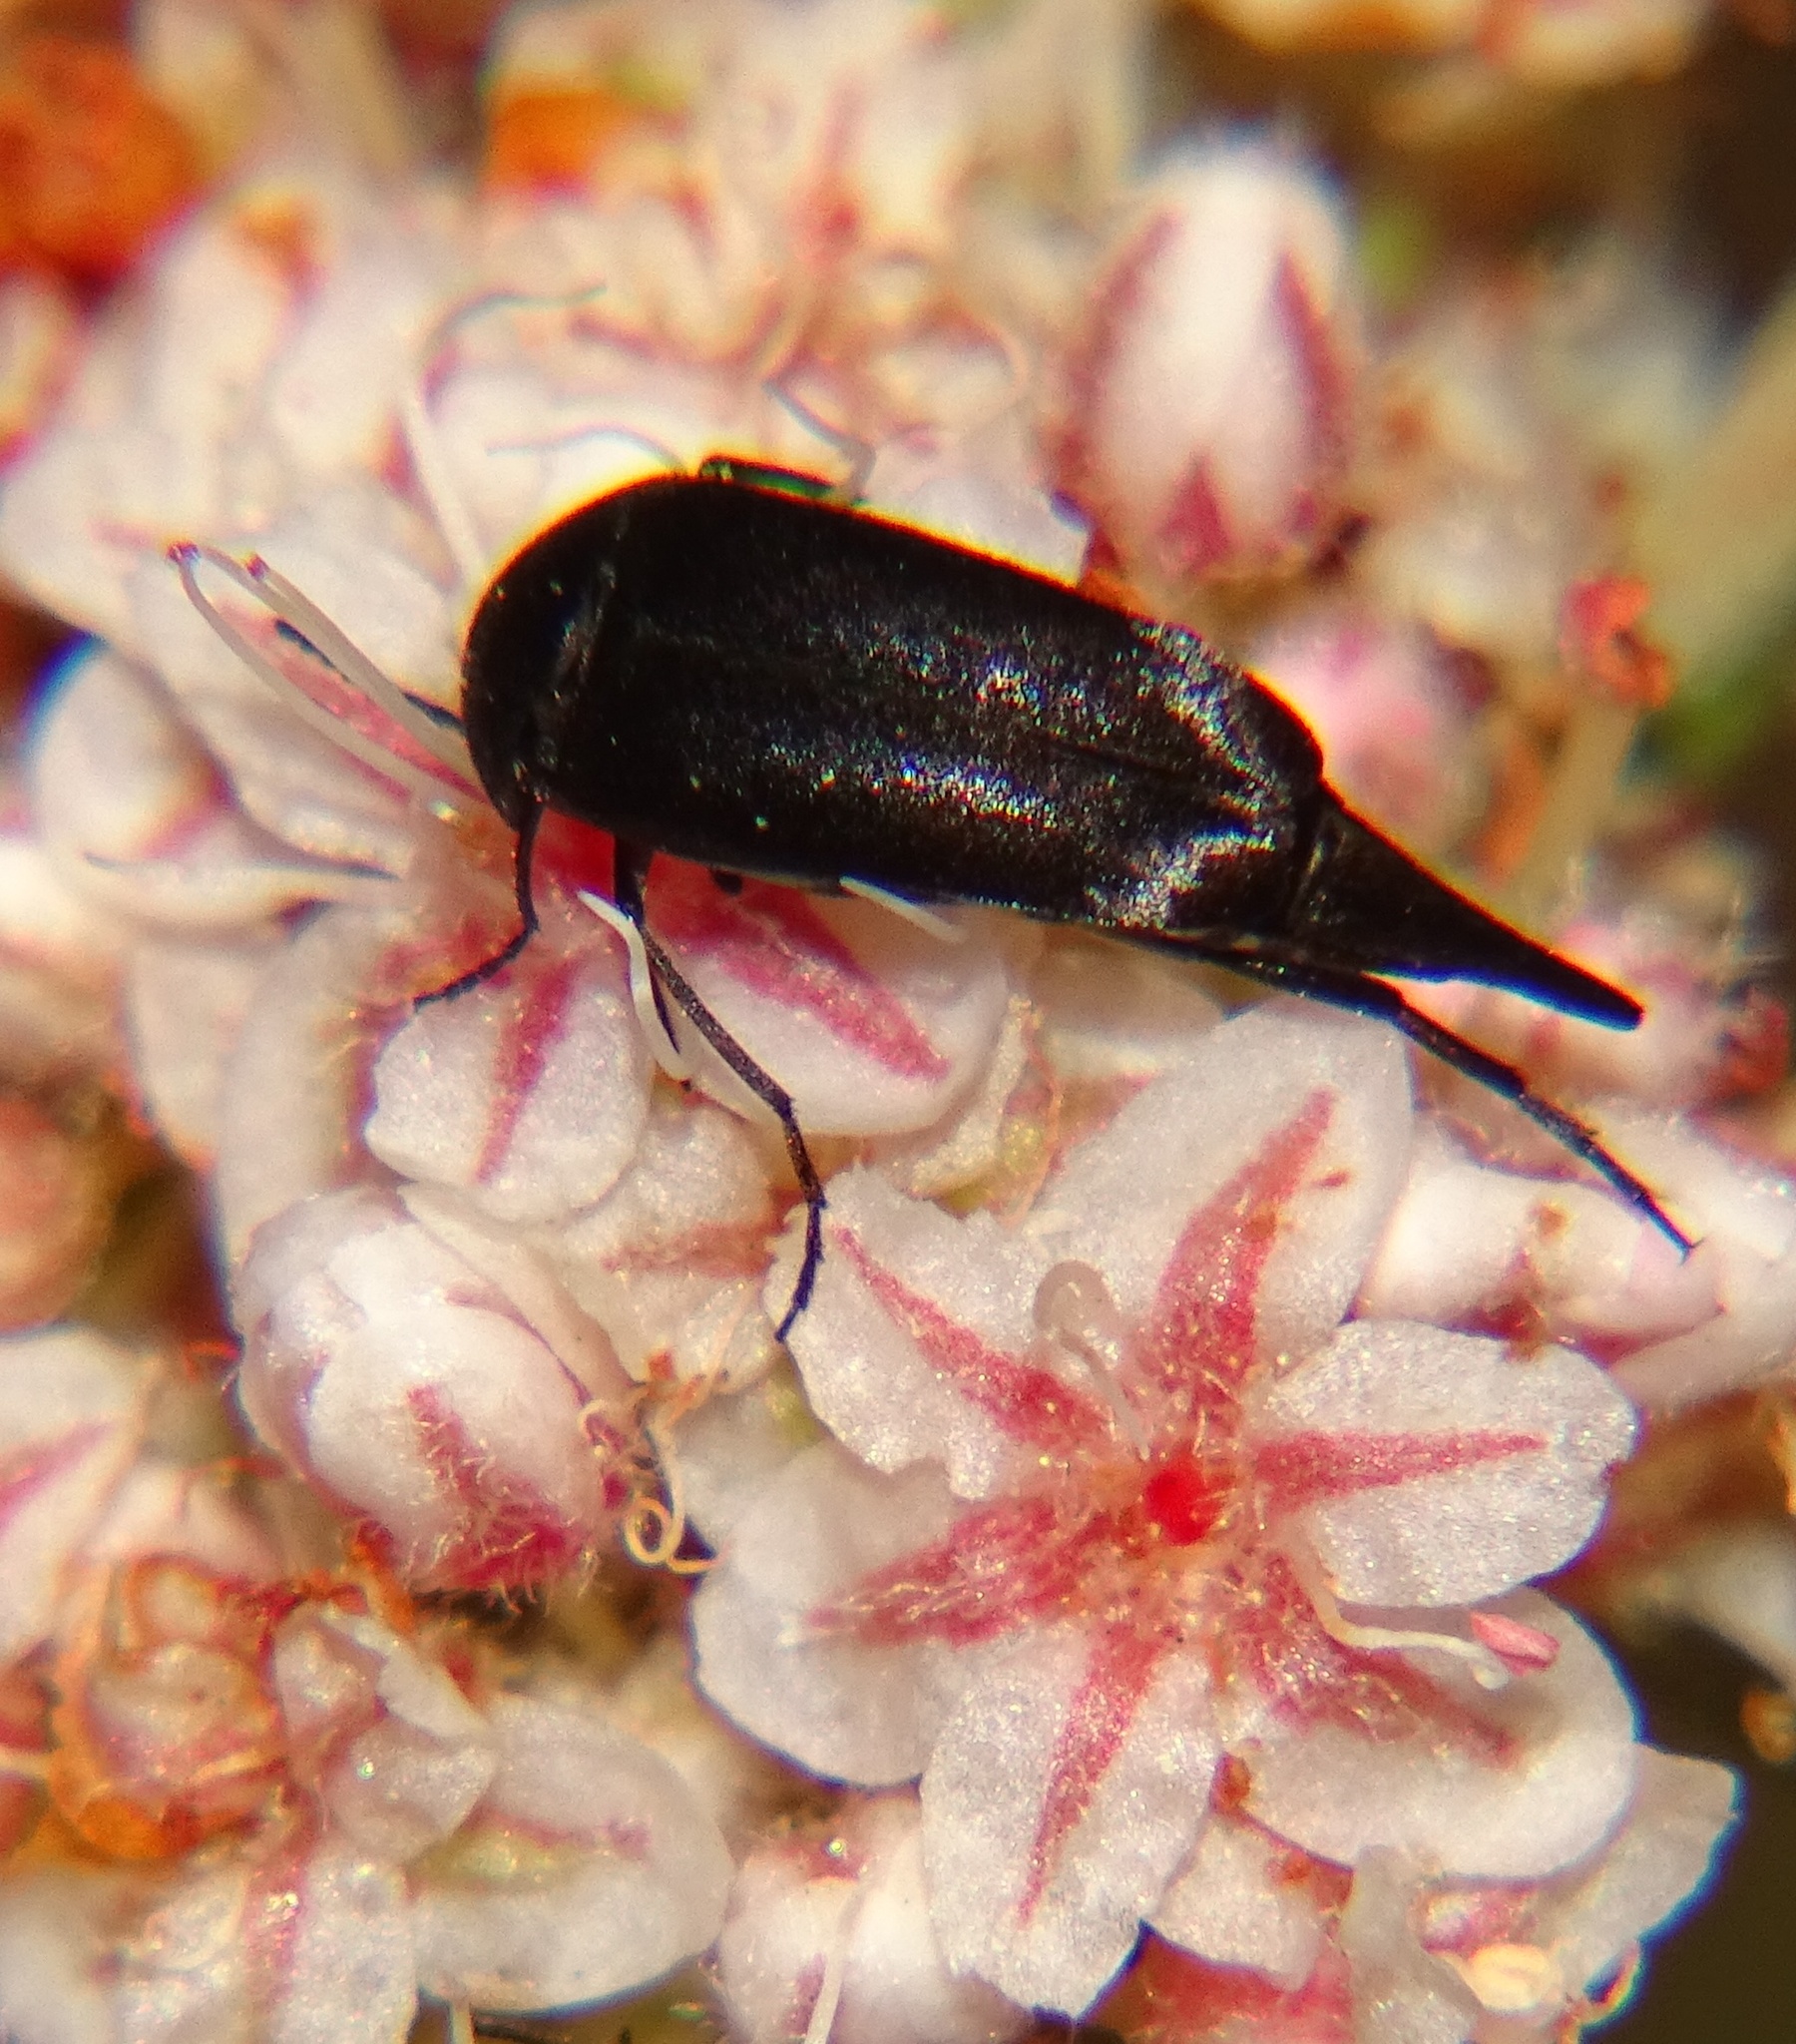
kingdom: Animalia
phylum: Arthropoda
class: Insecta
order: Coleoptera
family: Mordellidae
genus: Mordella
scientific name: Mordella hubbsi
